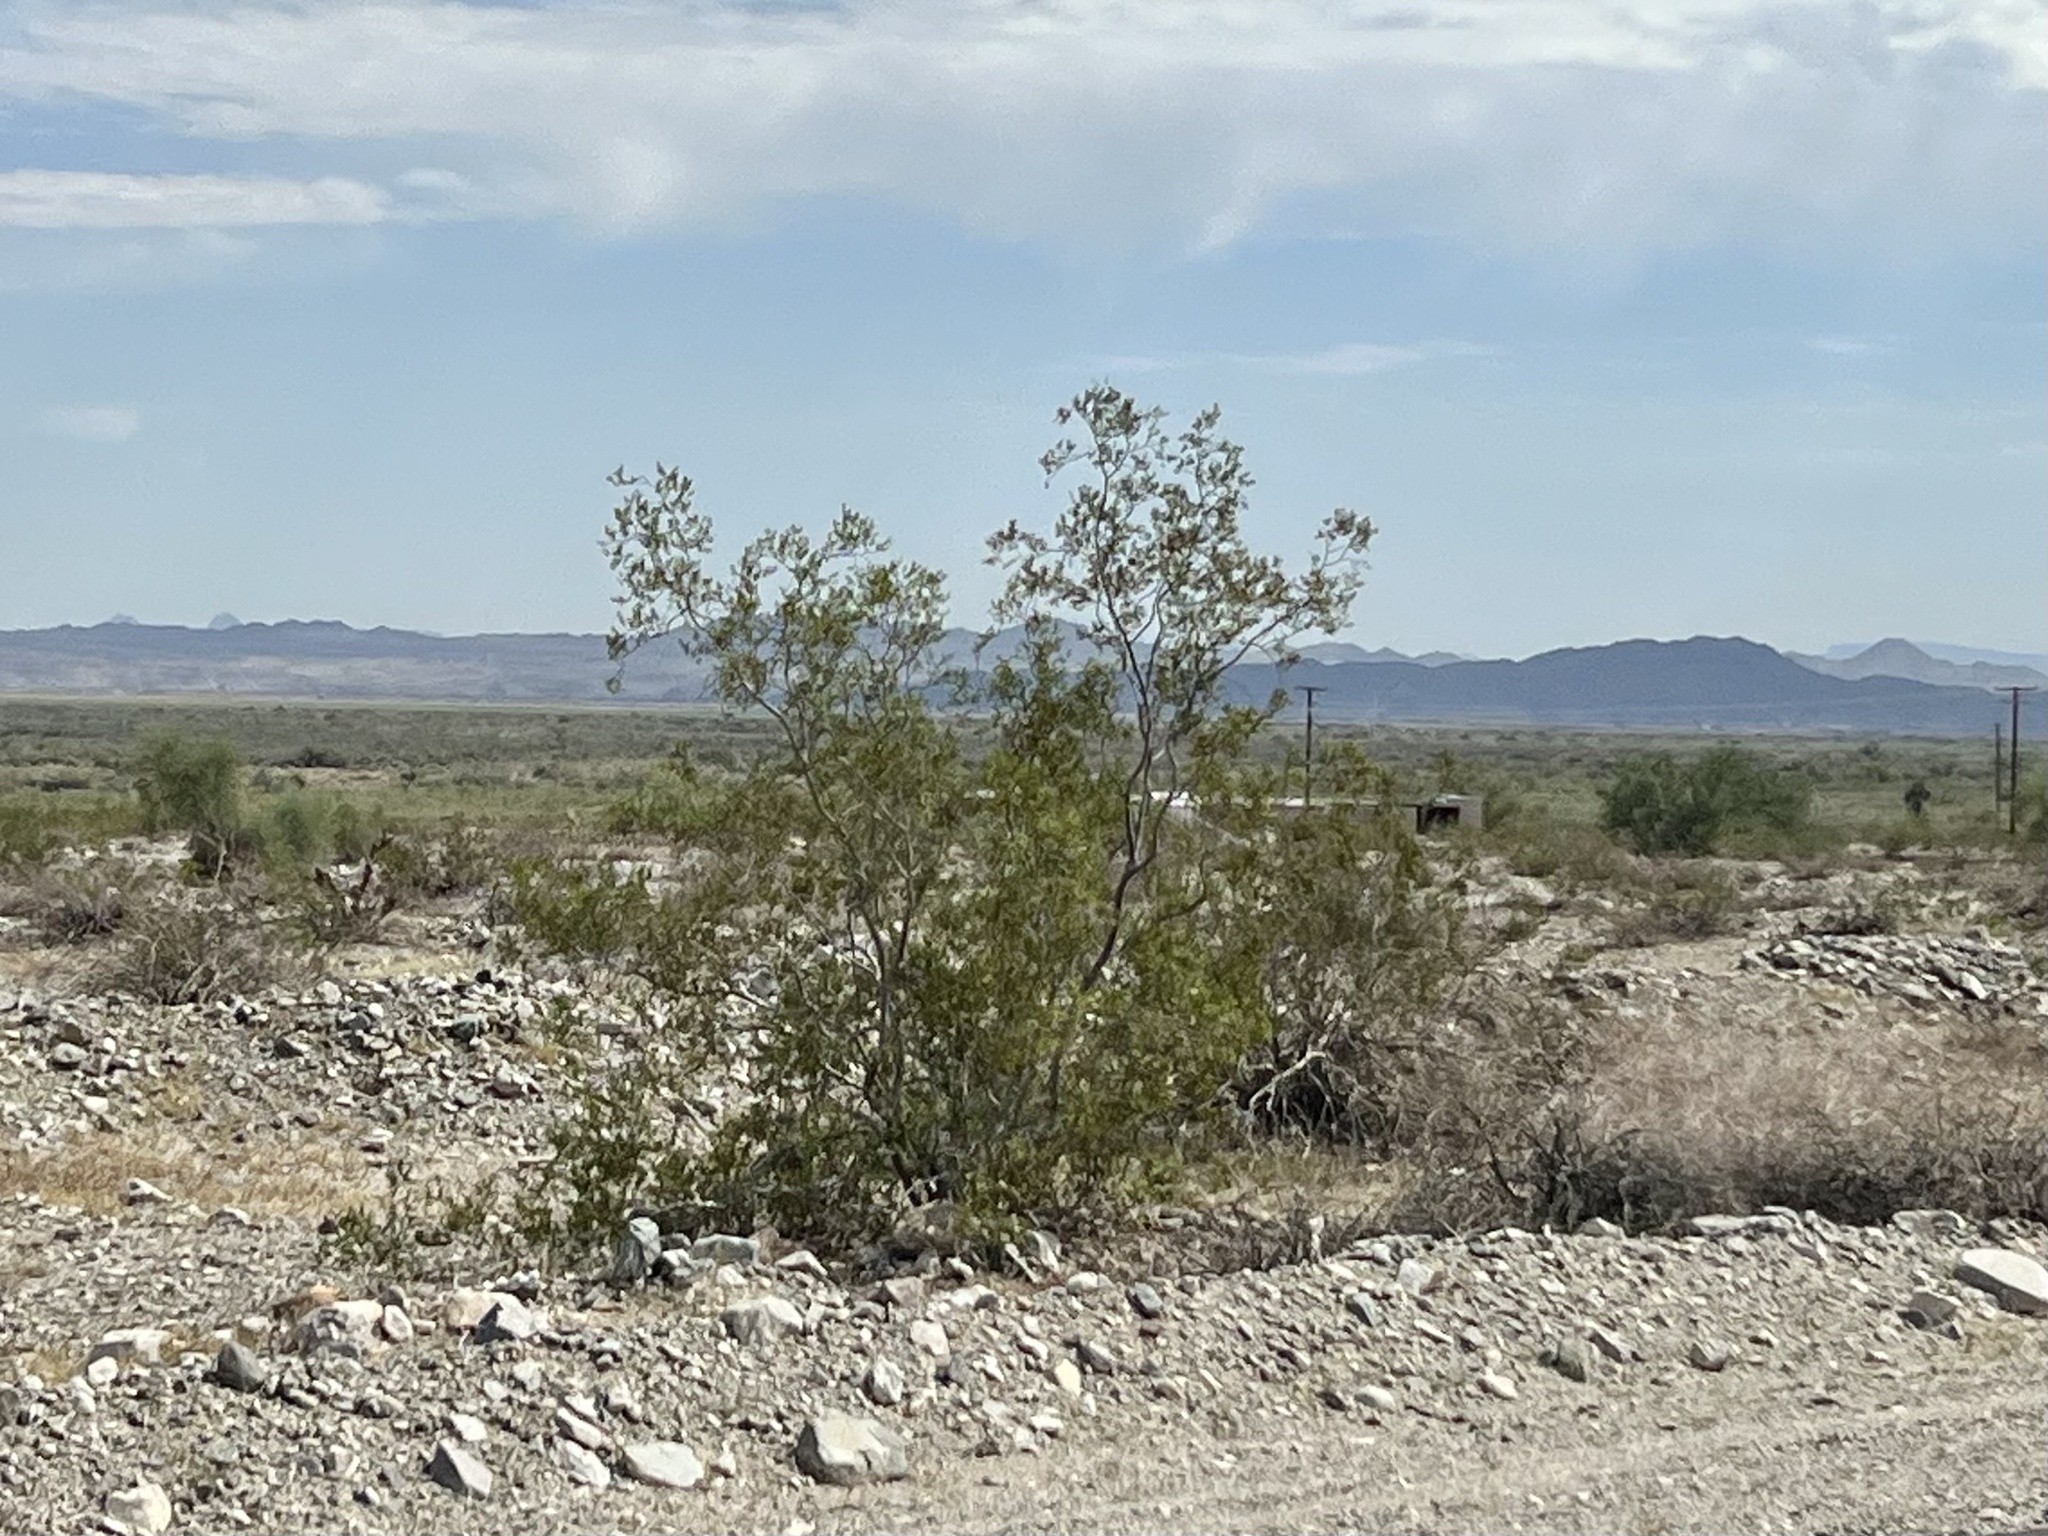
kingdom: Plantae
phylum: Tracheophyta
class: Magnoliopsida
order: Zygophyllales
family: Zygophyllaceae
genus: Larrea
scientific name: Larrea tridentata
